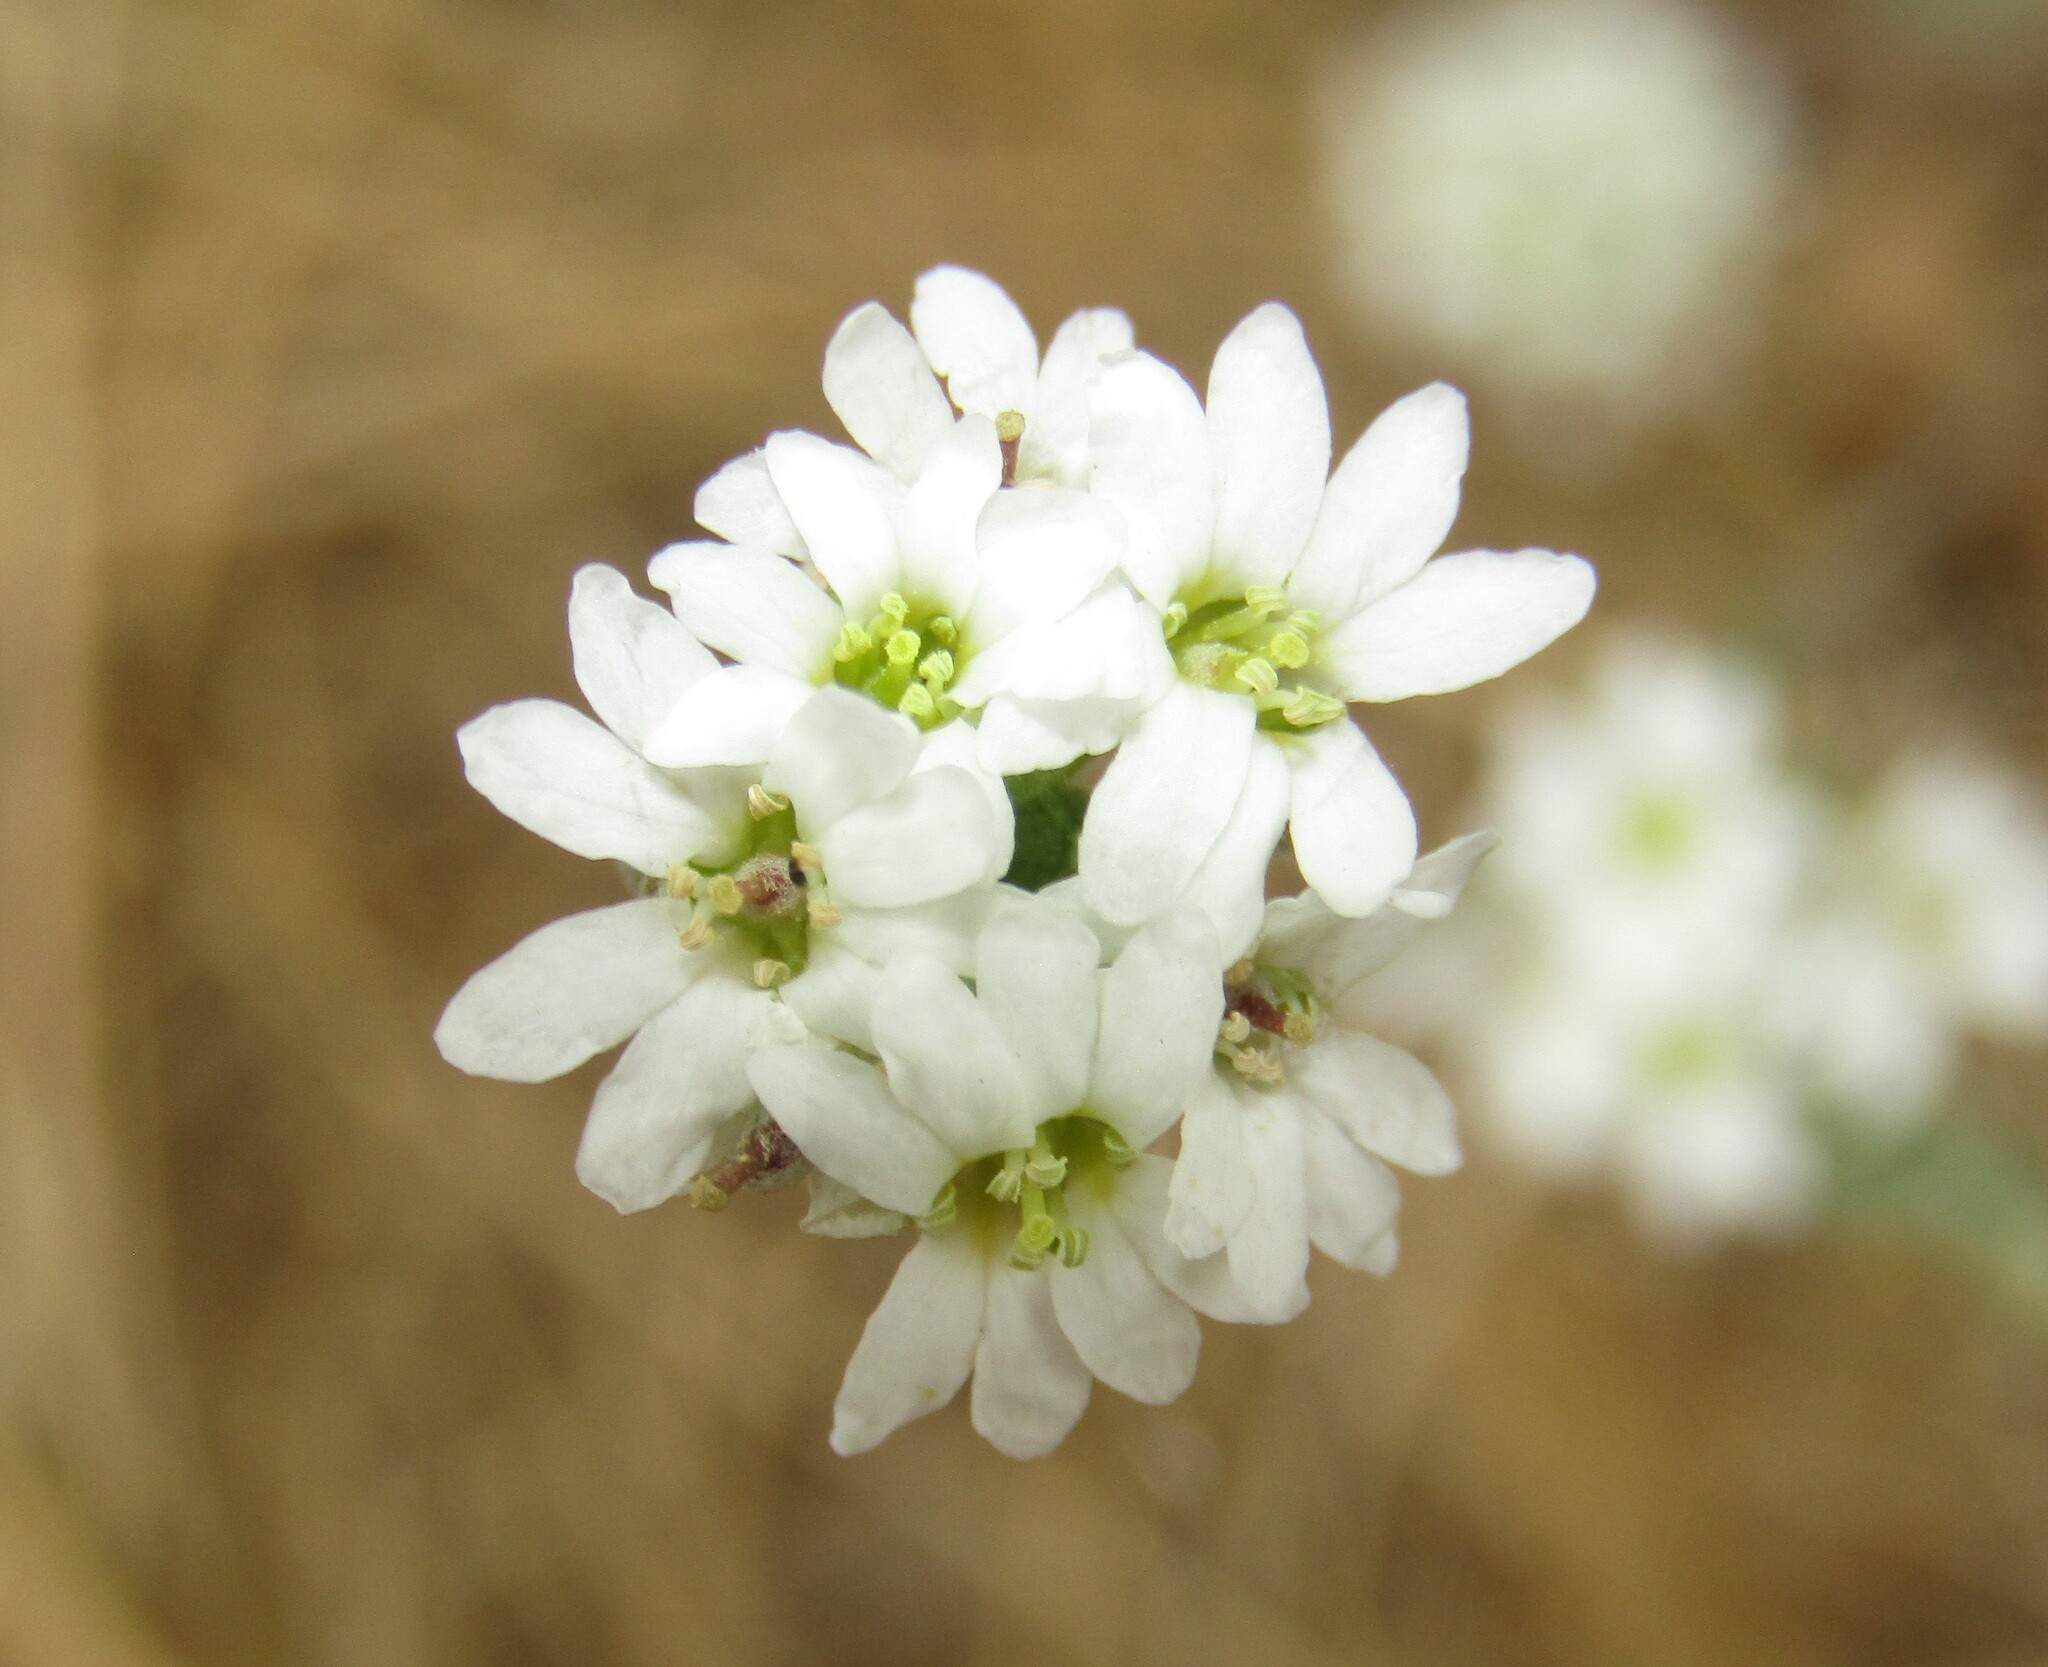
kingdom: Plantae
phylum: Tracheophyta
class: Magnoliopsida
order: Brassicales
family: Brassicaceae
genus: Berteroa
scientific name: Berteroa incana
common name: Hoary alison
